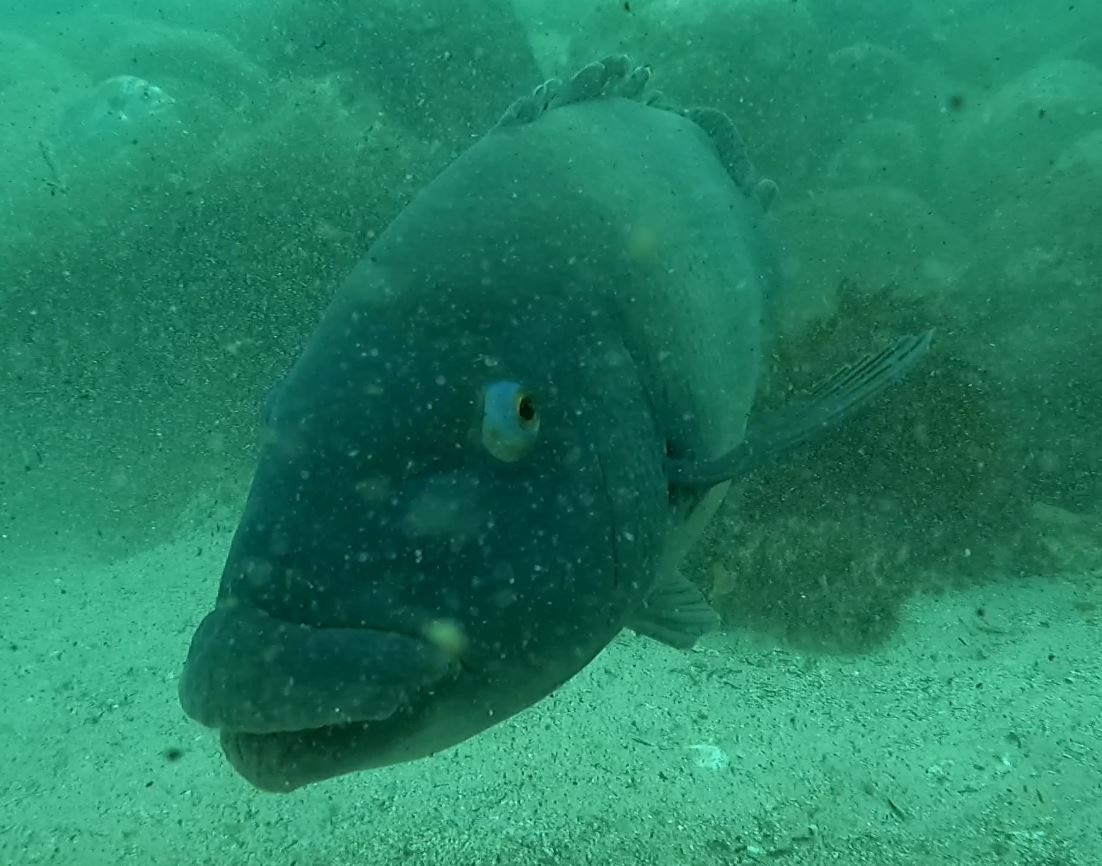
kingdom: Animalia
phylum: Chordata
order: Perciformes
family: Labridae
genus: Achoerodus
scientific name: Achoerodus viridis
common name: Brown groper
